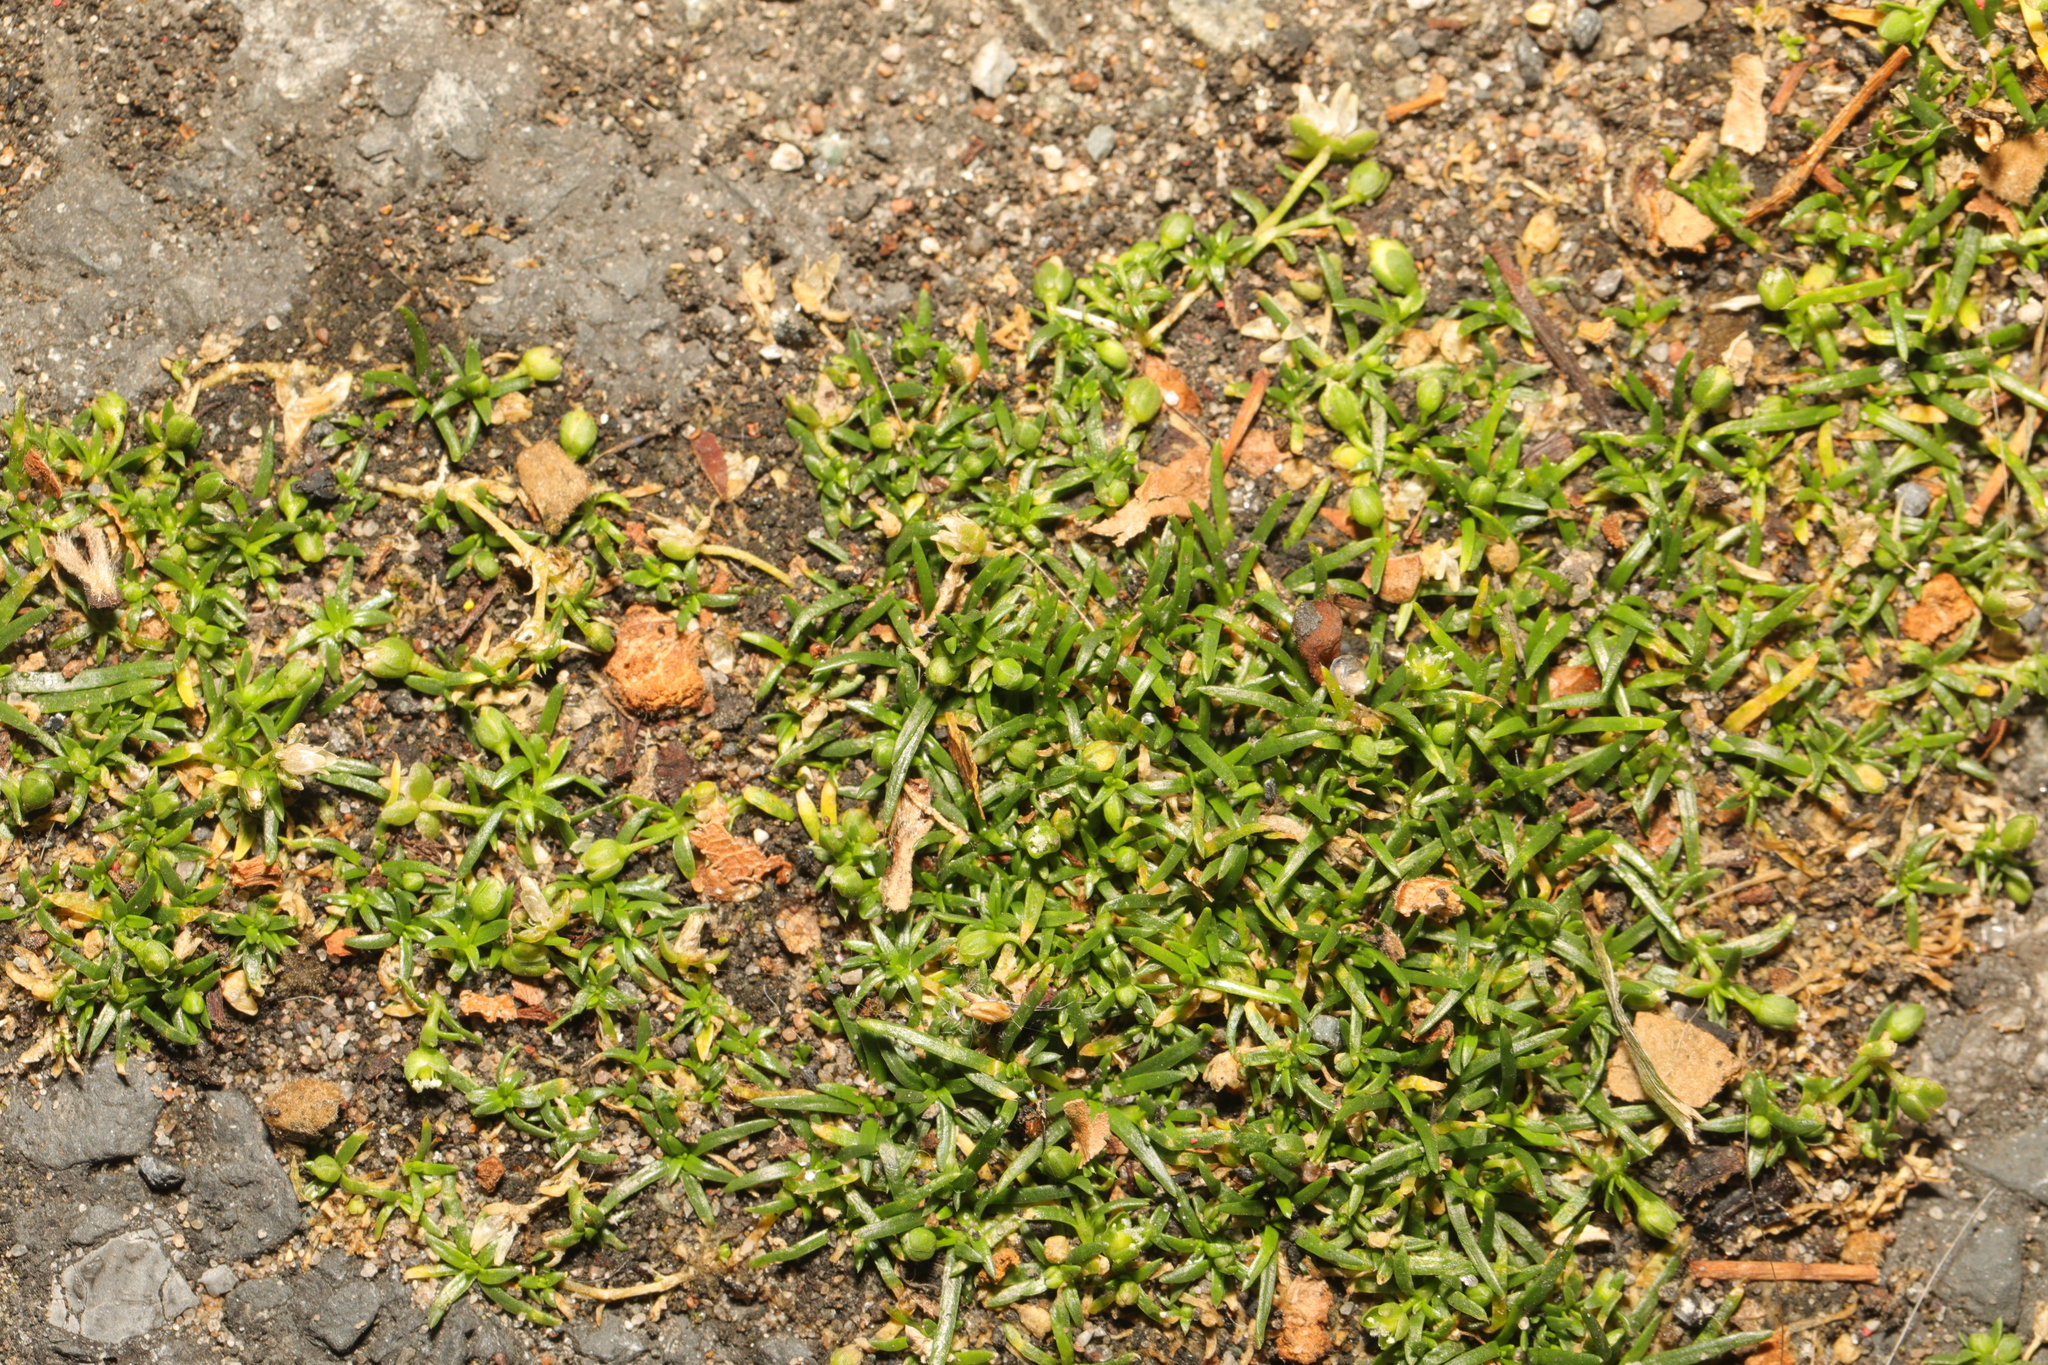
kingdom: Plantae
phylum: Tracheophyta
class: Magnoliopsida
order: Caryophyllales
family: Caryophyllaceae
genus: Sagina
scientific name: Sagina procumbens
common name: Procumbent pearlwort
